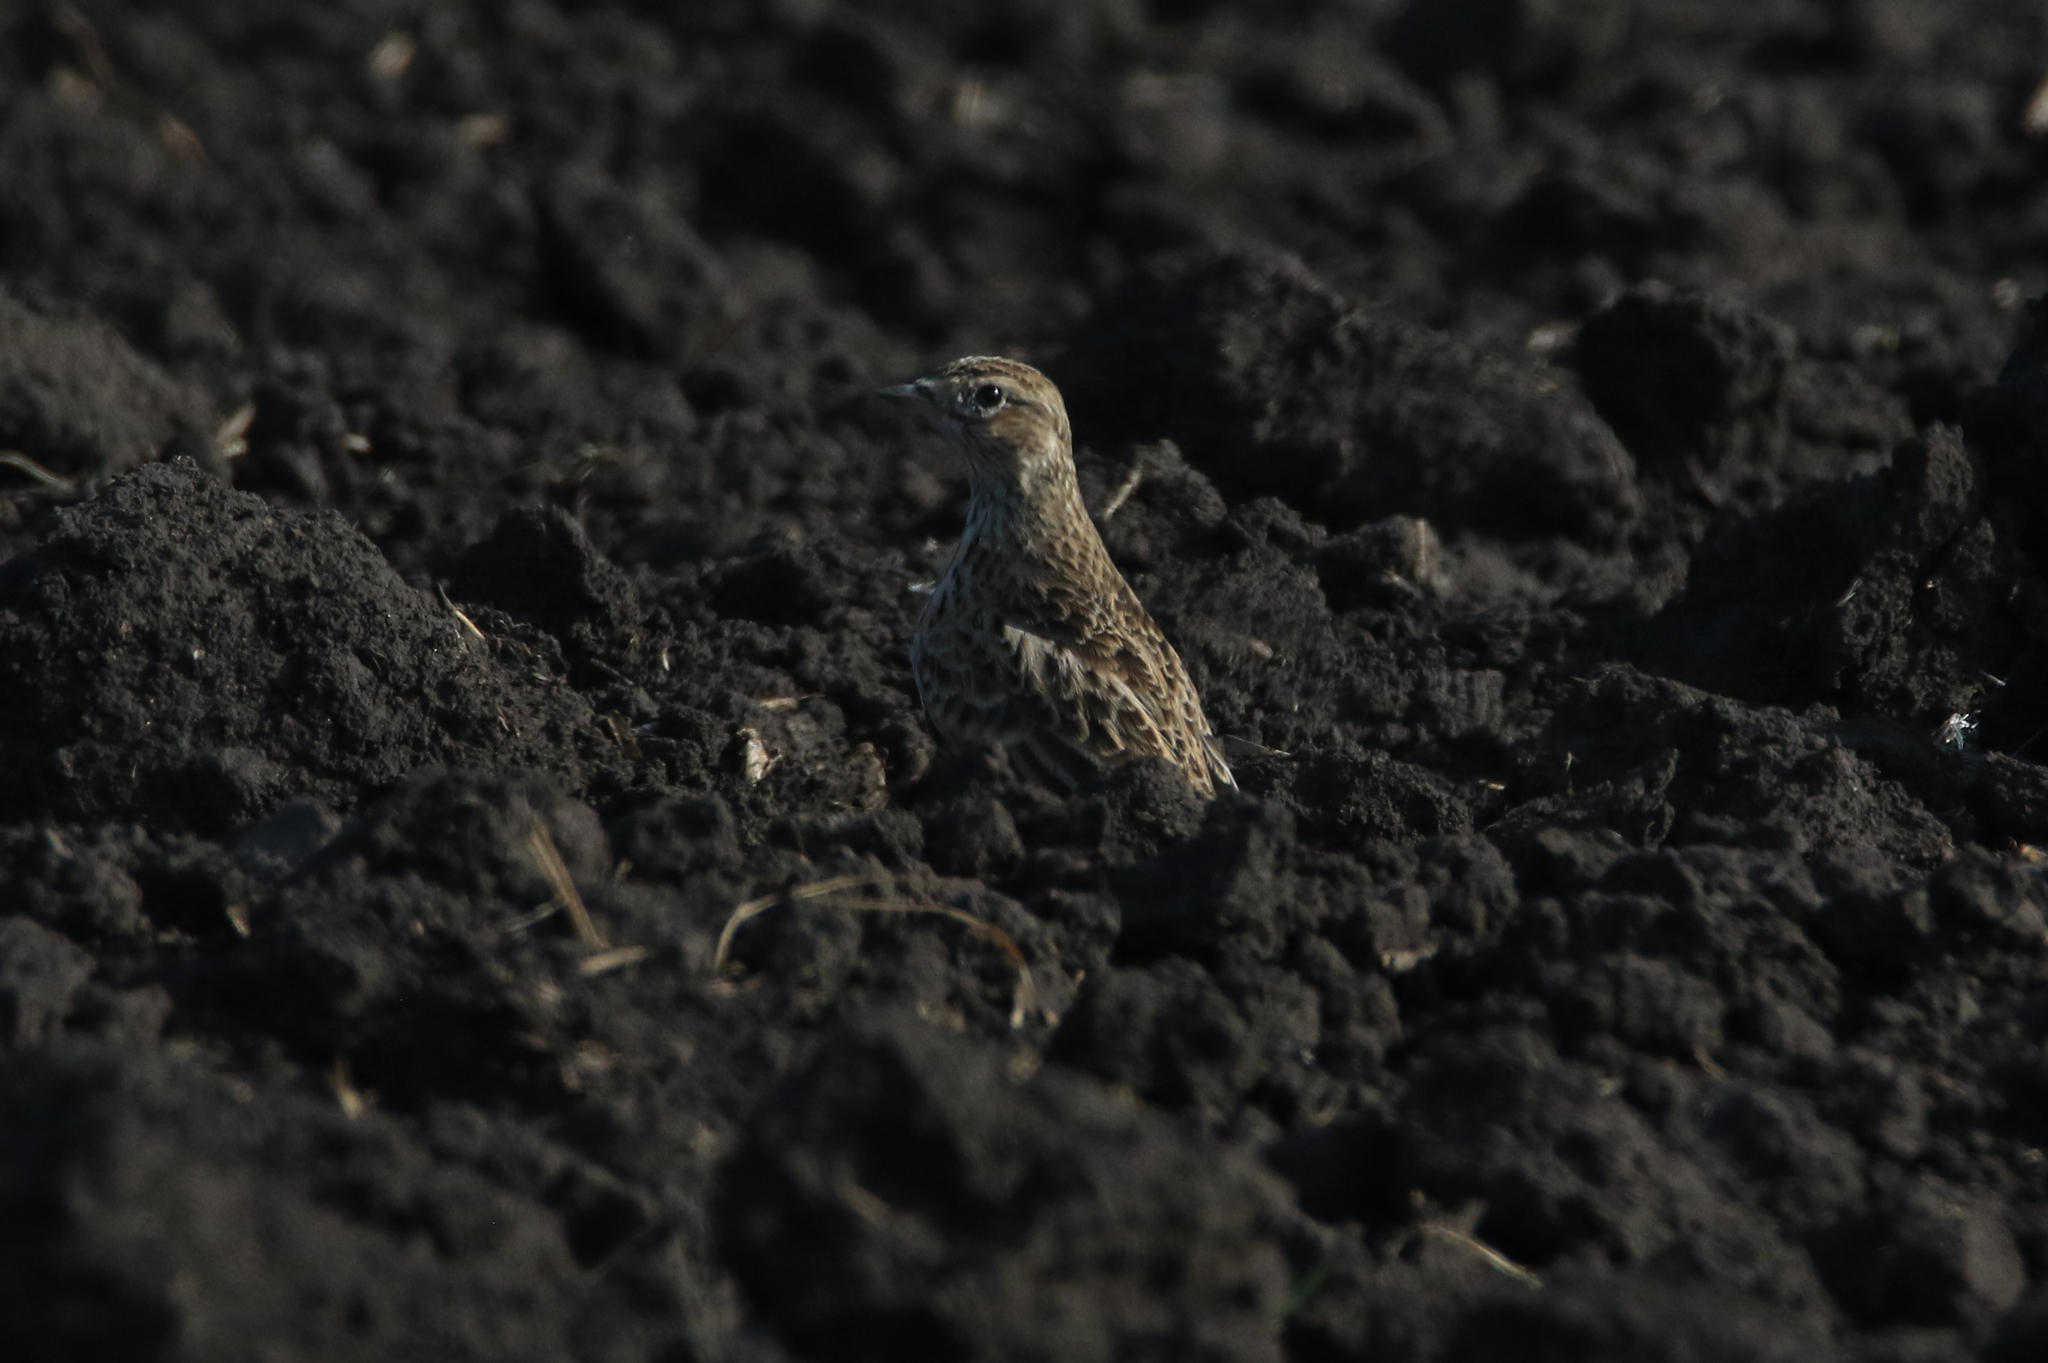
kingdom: Animalia
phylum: Chordata
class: Aves
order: Passeriformes
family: Alaudidae
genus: Alauda
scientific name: Alauda arvensis
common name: Eurasian skylark
